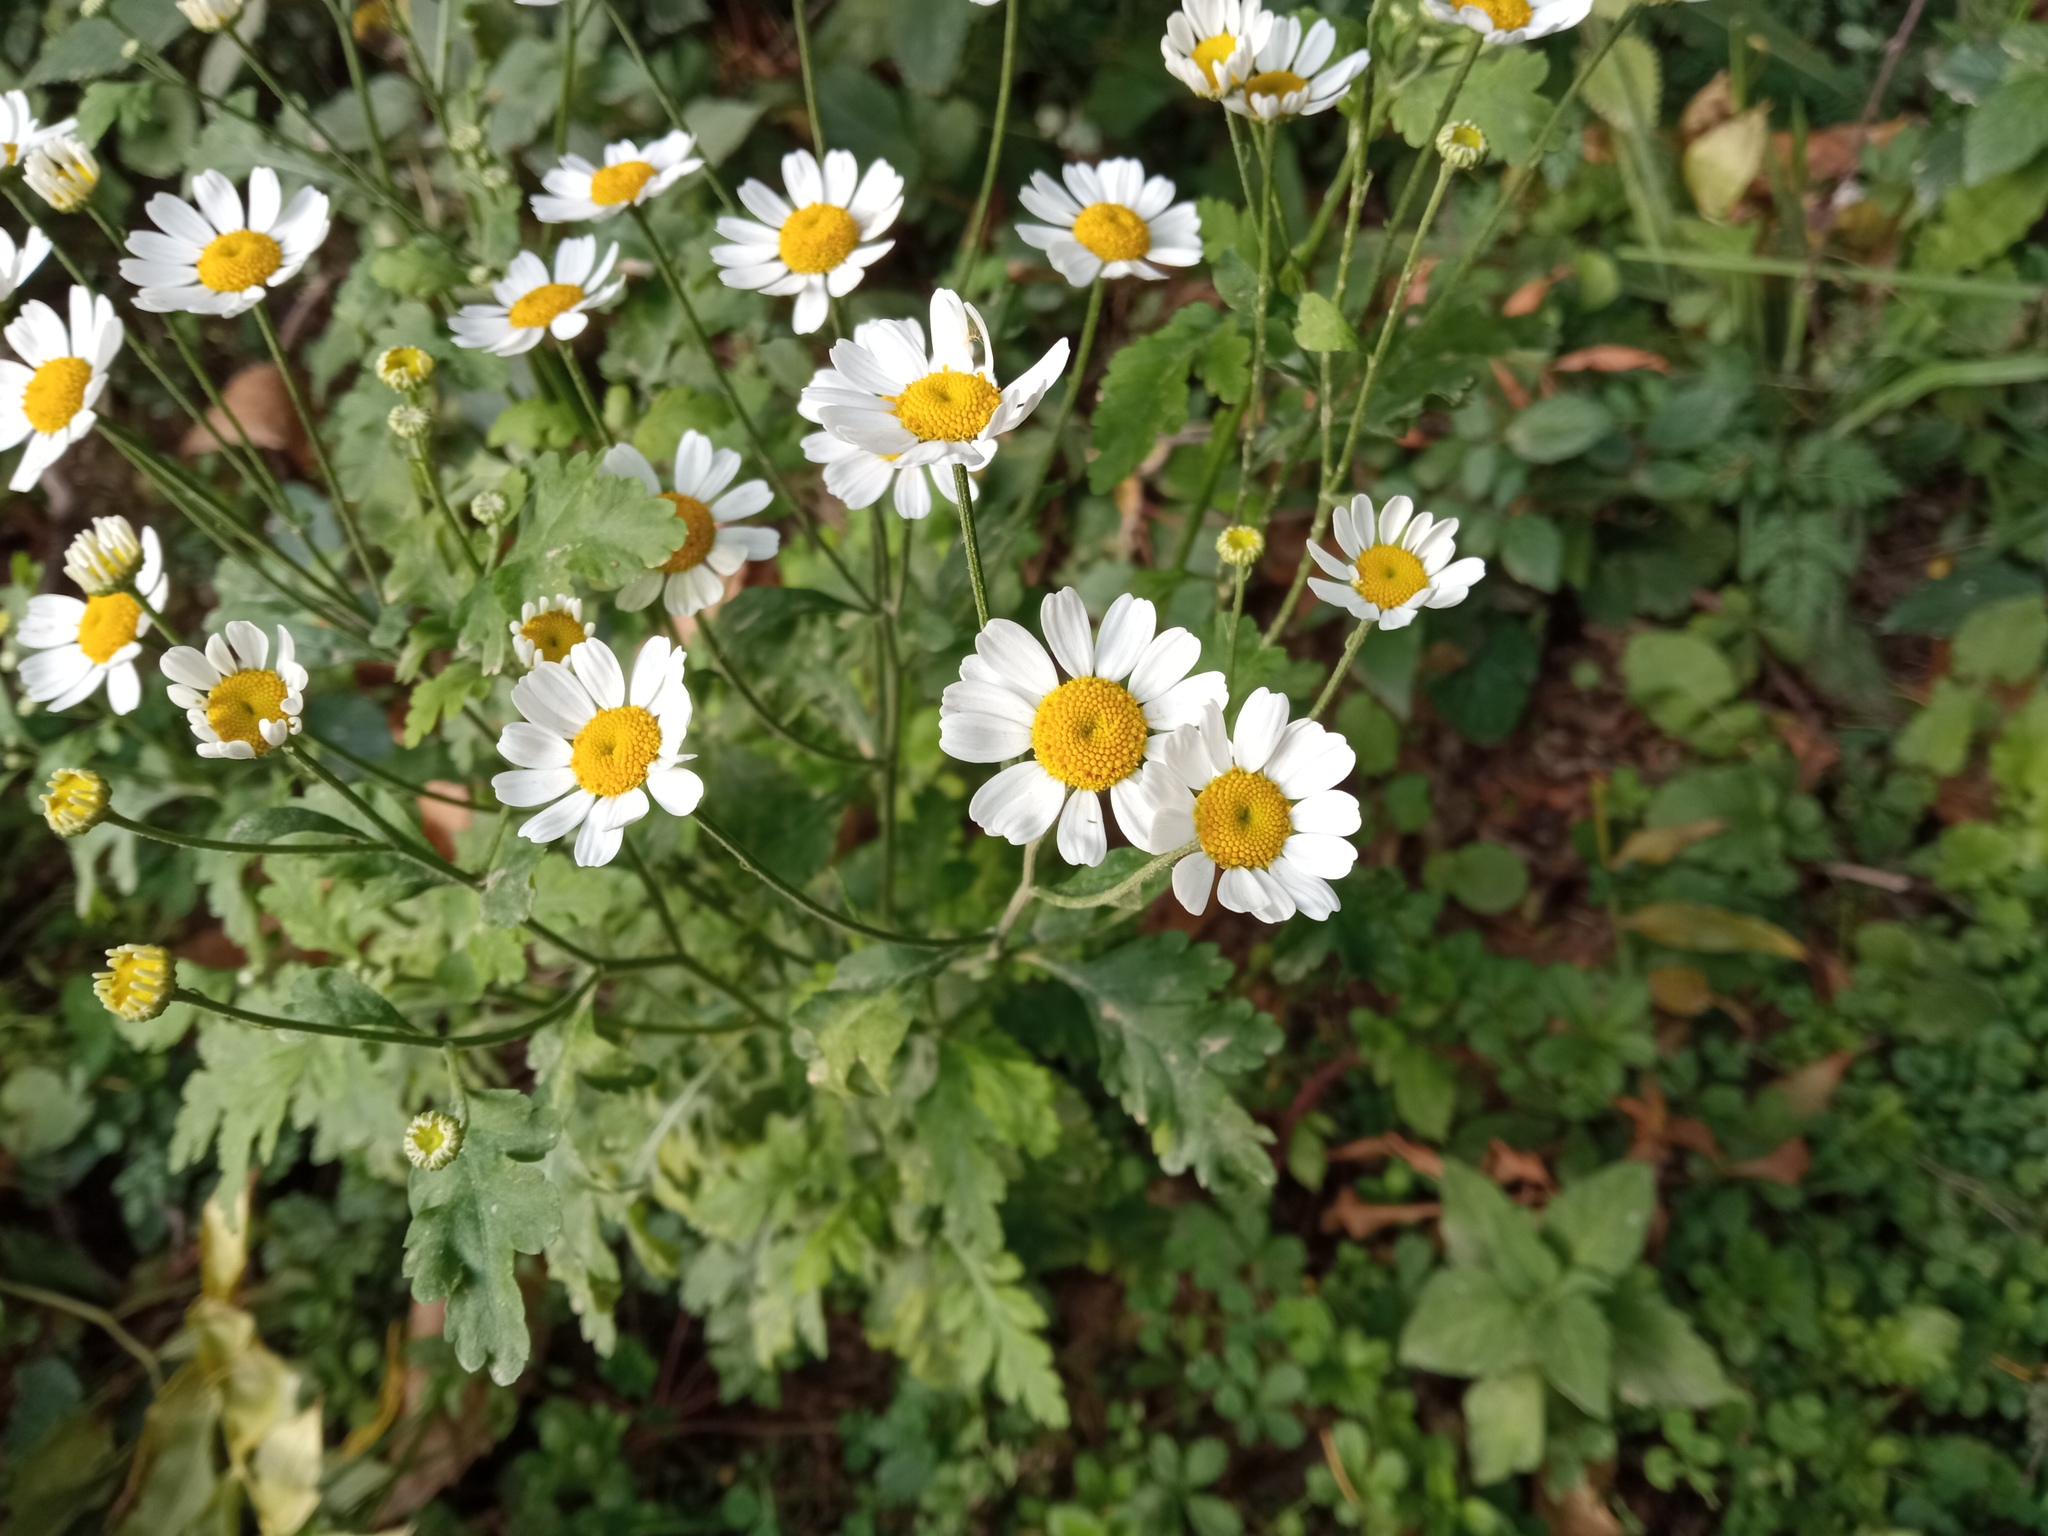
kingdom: Plantae
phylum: Tracheophyta
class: Magnoliopsida
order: Asterales
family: Asteraceae
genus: Tanacetum
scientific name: Tanacetum parthenium
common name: Feverfew
